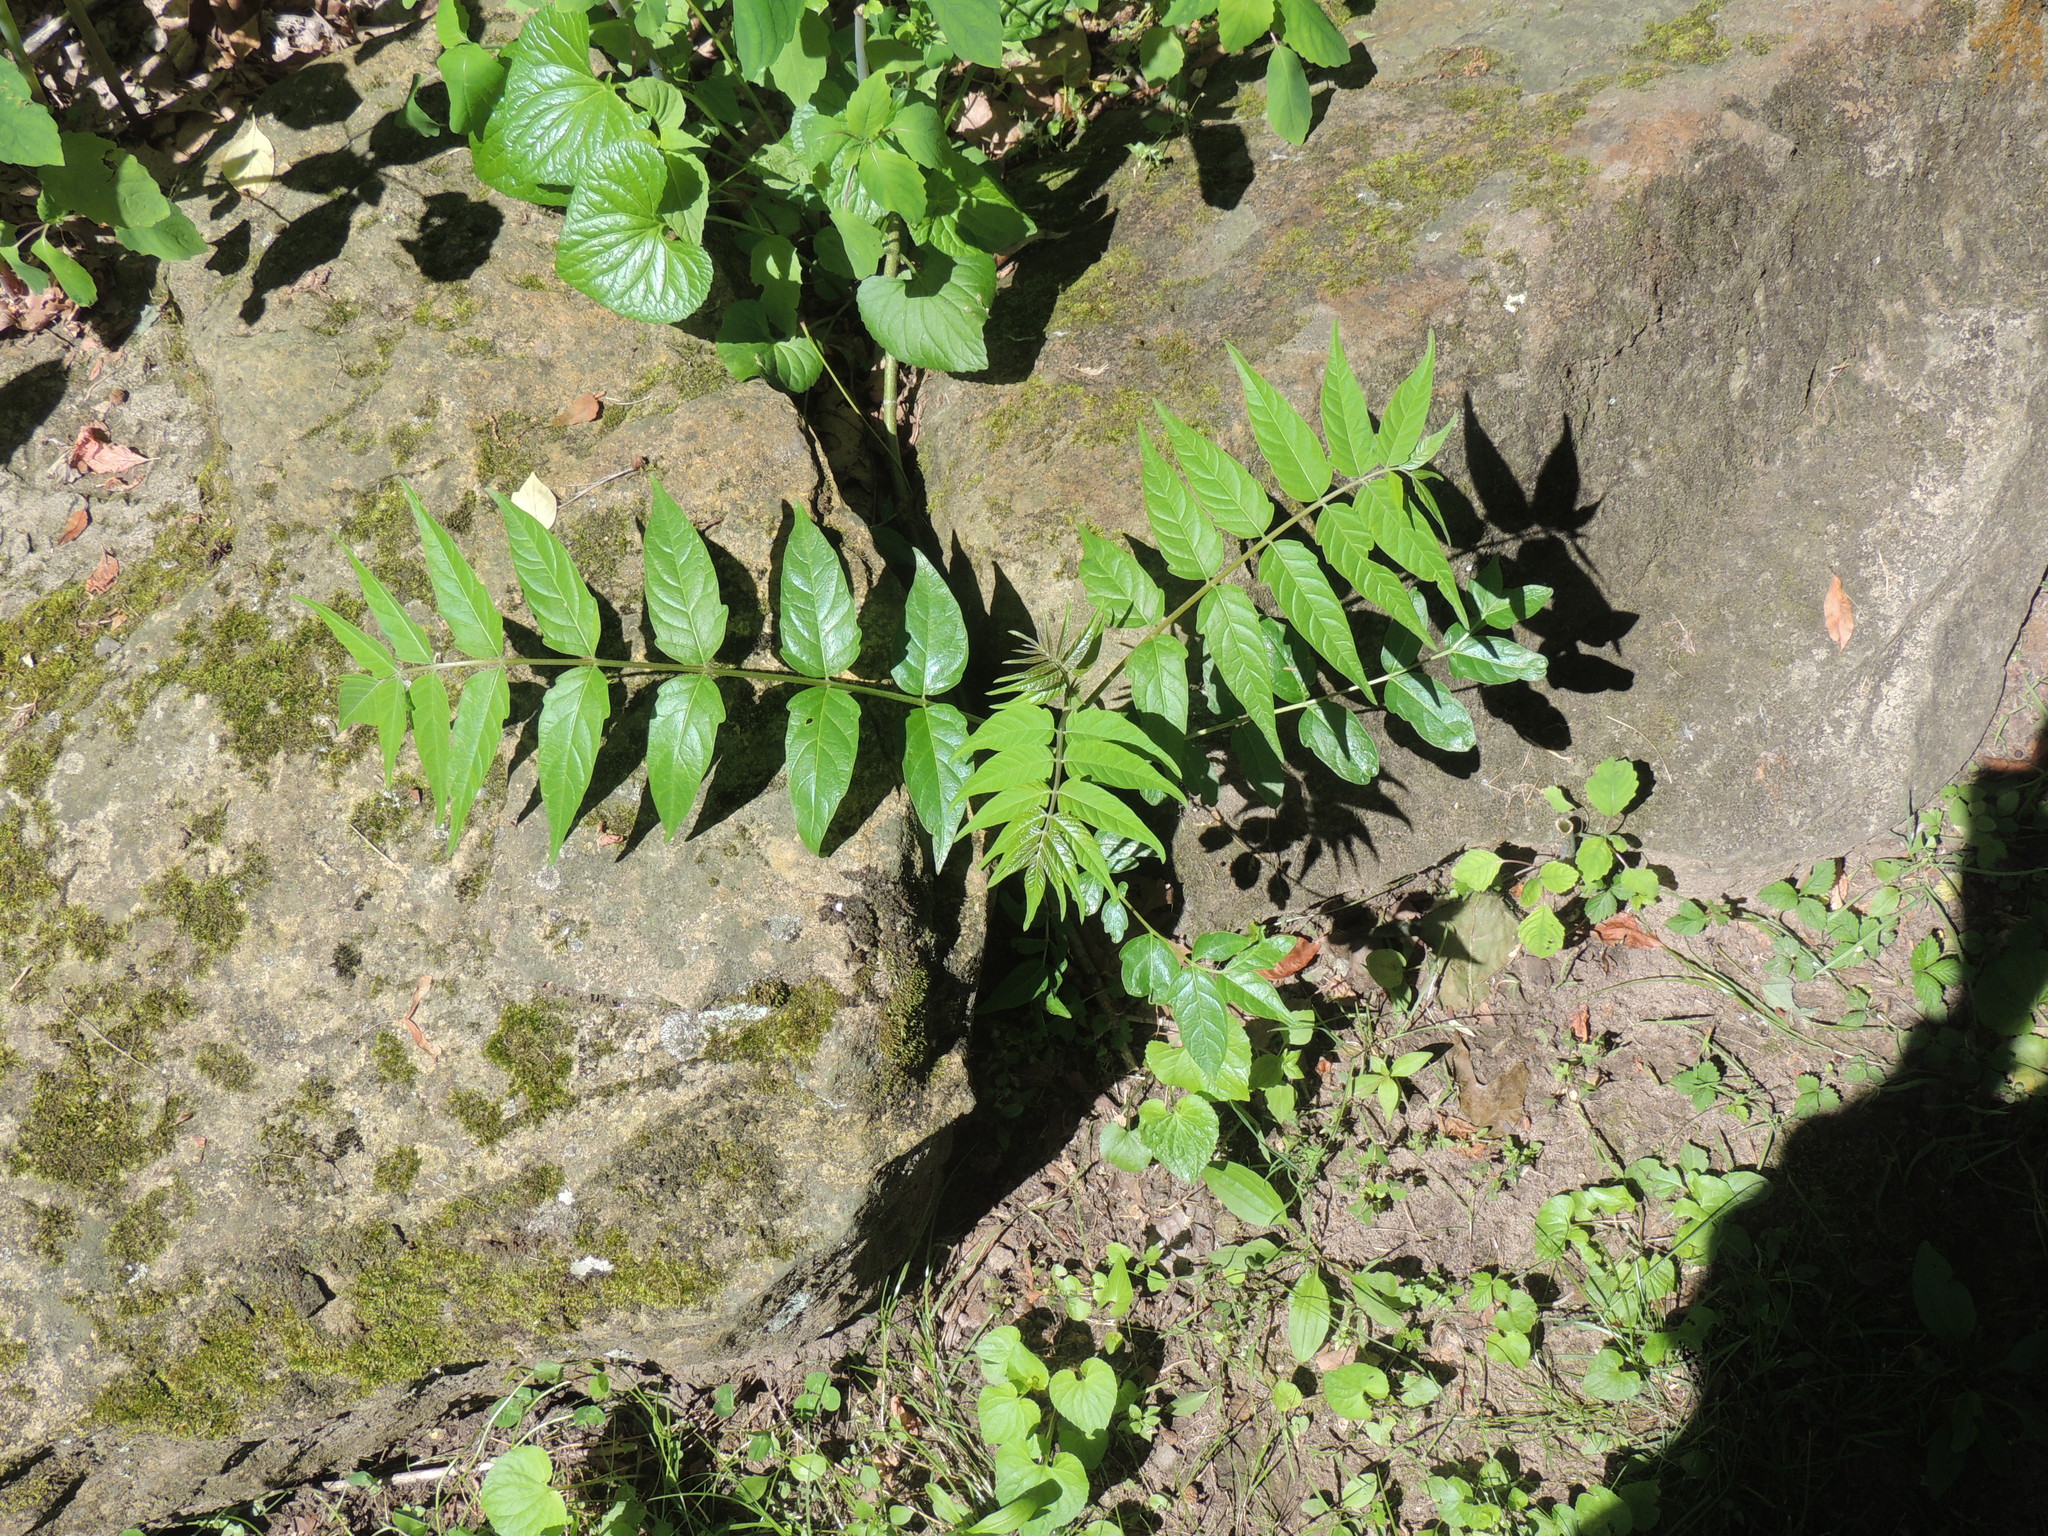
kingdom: Plantae
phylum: Tracheophyta
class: Magnoliopsida
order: Sapindales
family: Simaroubaceae
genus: Ailanthus
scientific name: Ailanthus altissima
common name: Tree-of-heaven
